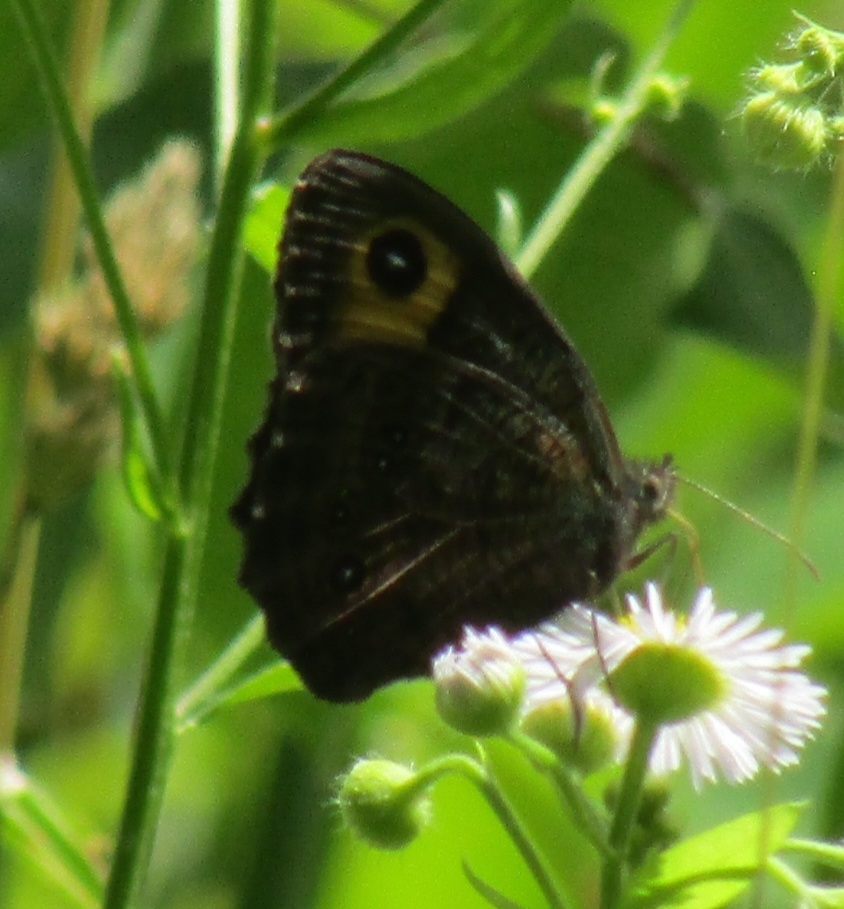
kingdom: Animalia
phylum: Arthropoda
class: Insecta
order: Lepidoptera
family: Nymphalidae
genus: Cercyonis
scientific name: Cercyonis pegala
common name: Common wood-nymph
